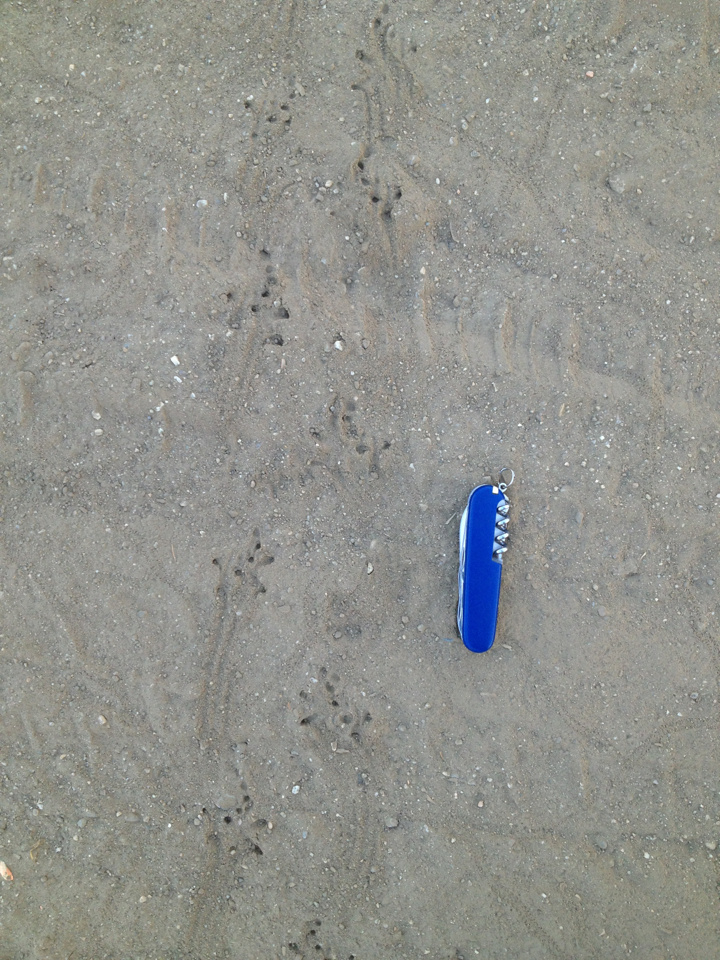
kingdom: Animalia
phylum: Chordata
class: Amphibia
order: Anura
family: Bufonidae
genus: Anaxyrus
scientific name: Anaxyrus boreas
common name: Western toad
